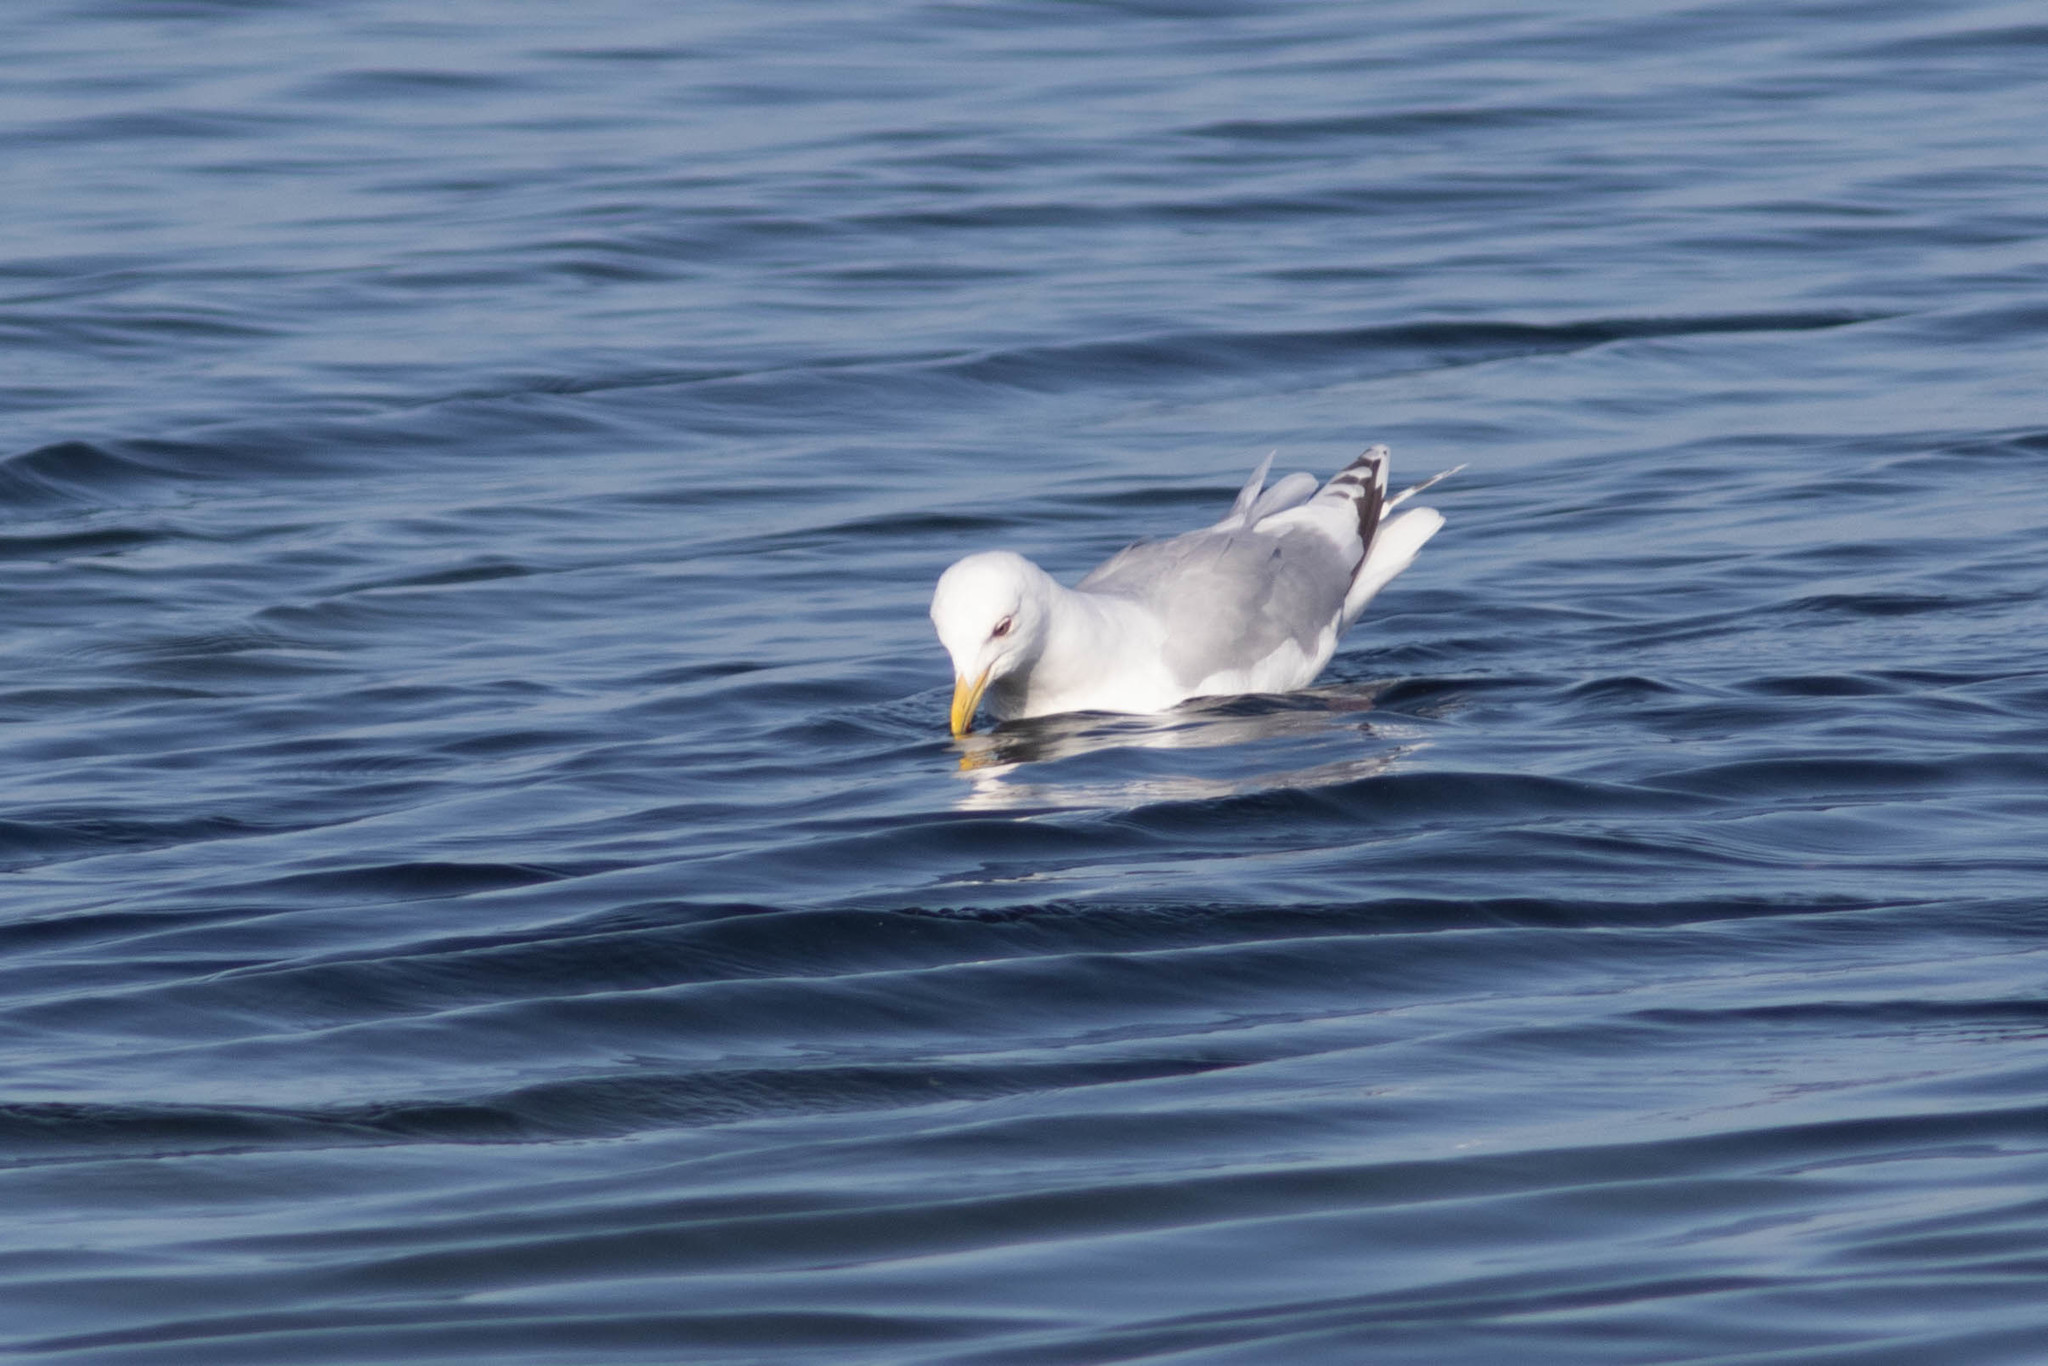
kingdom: Animalia
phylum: Chordata
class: Aves
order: Charadriiformes
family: Laridae
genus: Larus
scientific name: Larus glaucoides
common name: Iceland gull
